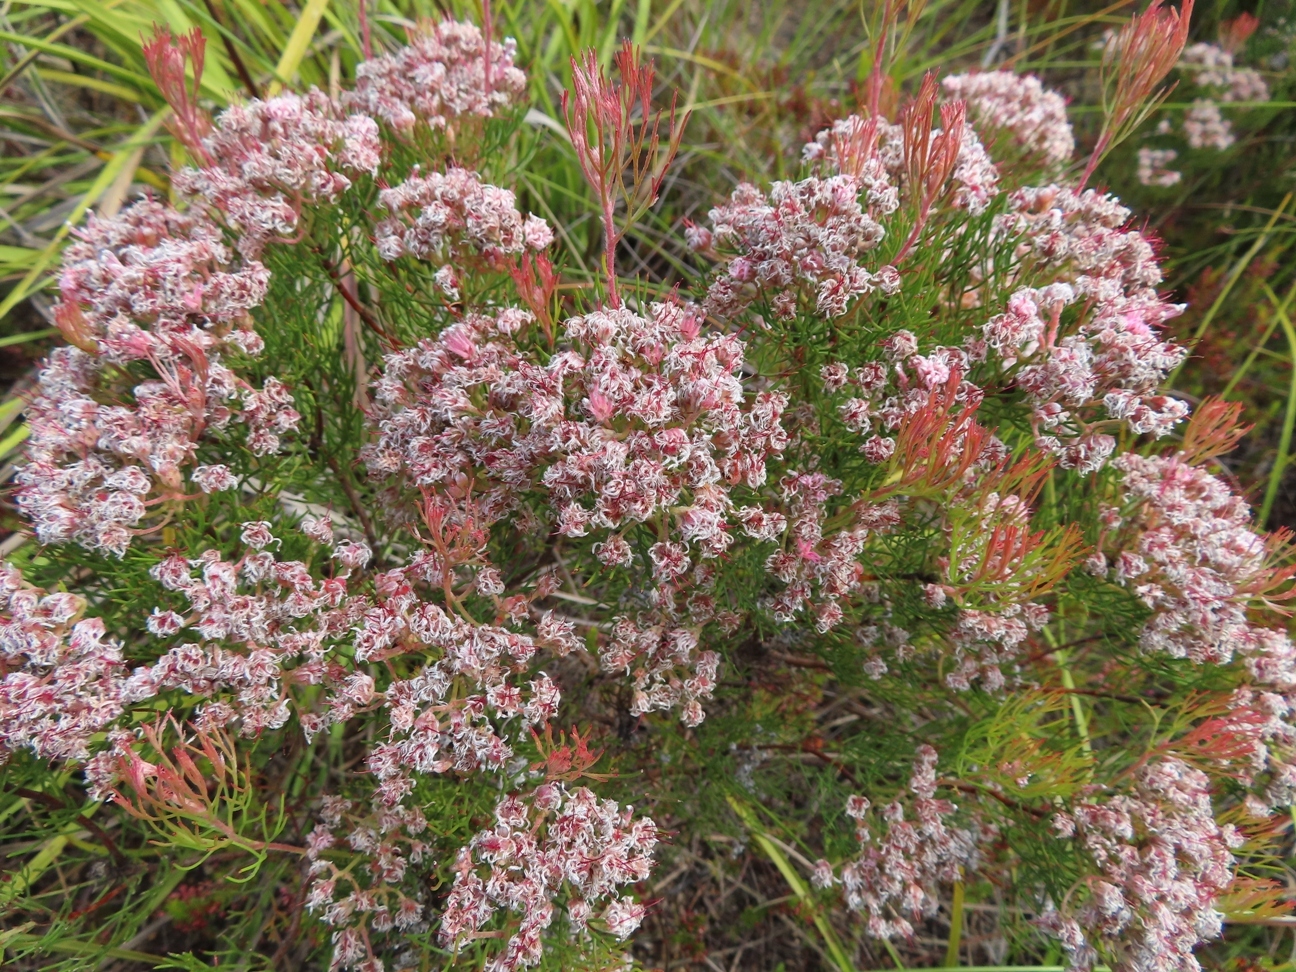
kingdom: Plantae
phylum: Tracheophyta
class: Magnoliopsida
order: Proteales
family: Proteaceae
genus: Serruria
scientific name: Serruria fasciflora
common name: Common pin spiderhead
